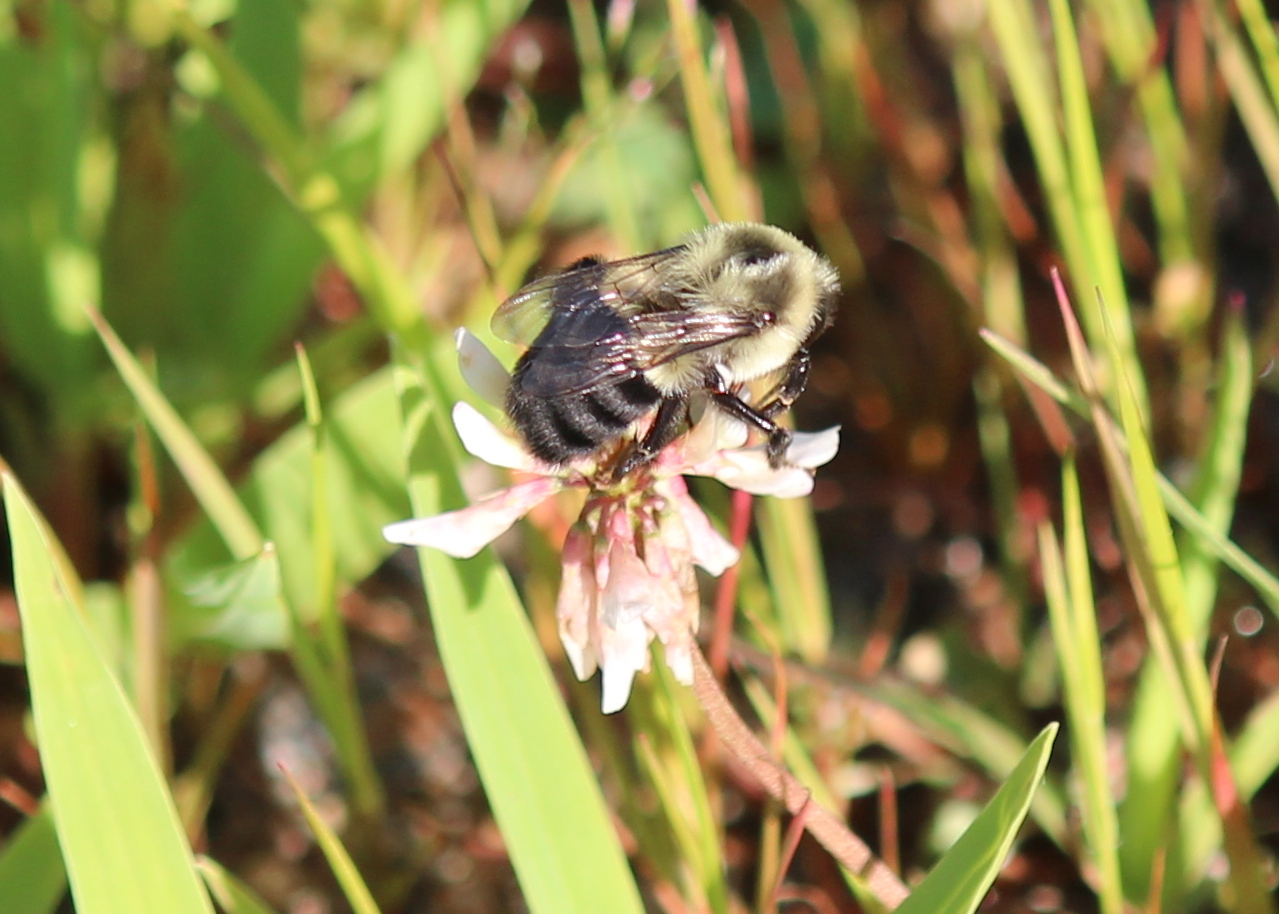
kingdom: Animalia
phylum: Arthropoda
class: Insecta
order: Hymenoptera
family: Apidae
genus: Bombus
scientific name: Bombus impatiens
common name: Common eastern bumble bee
